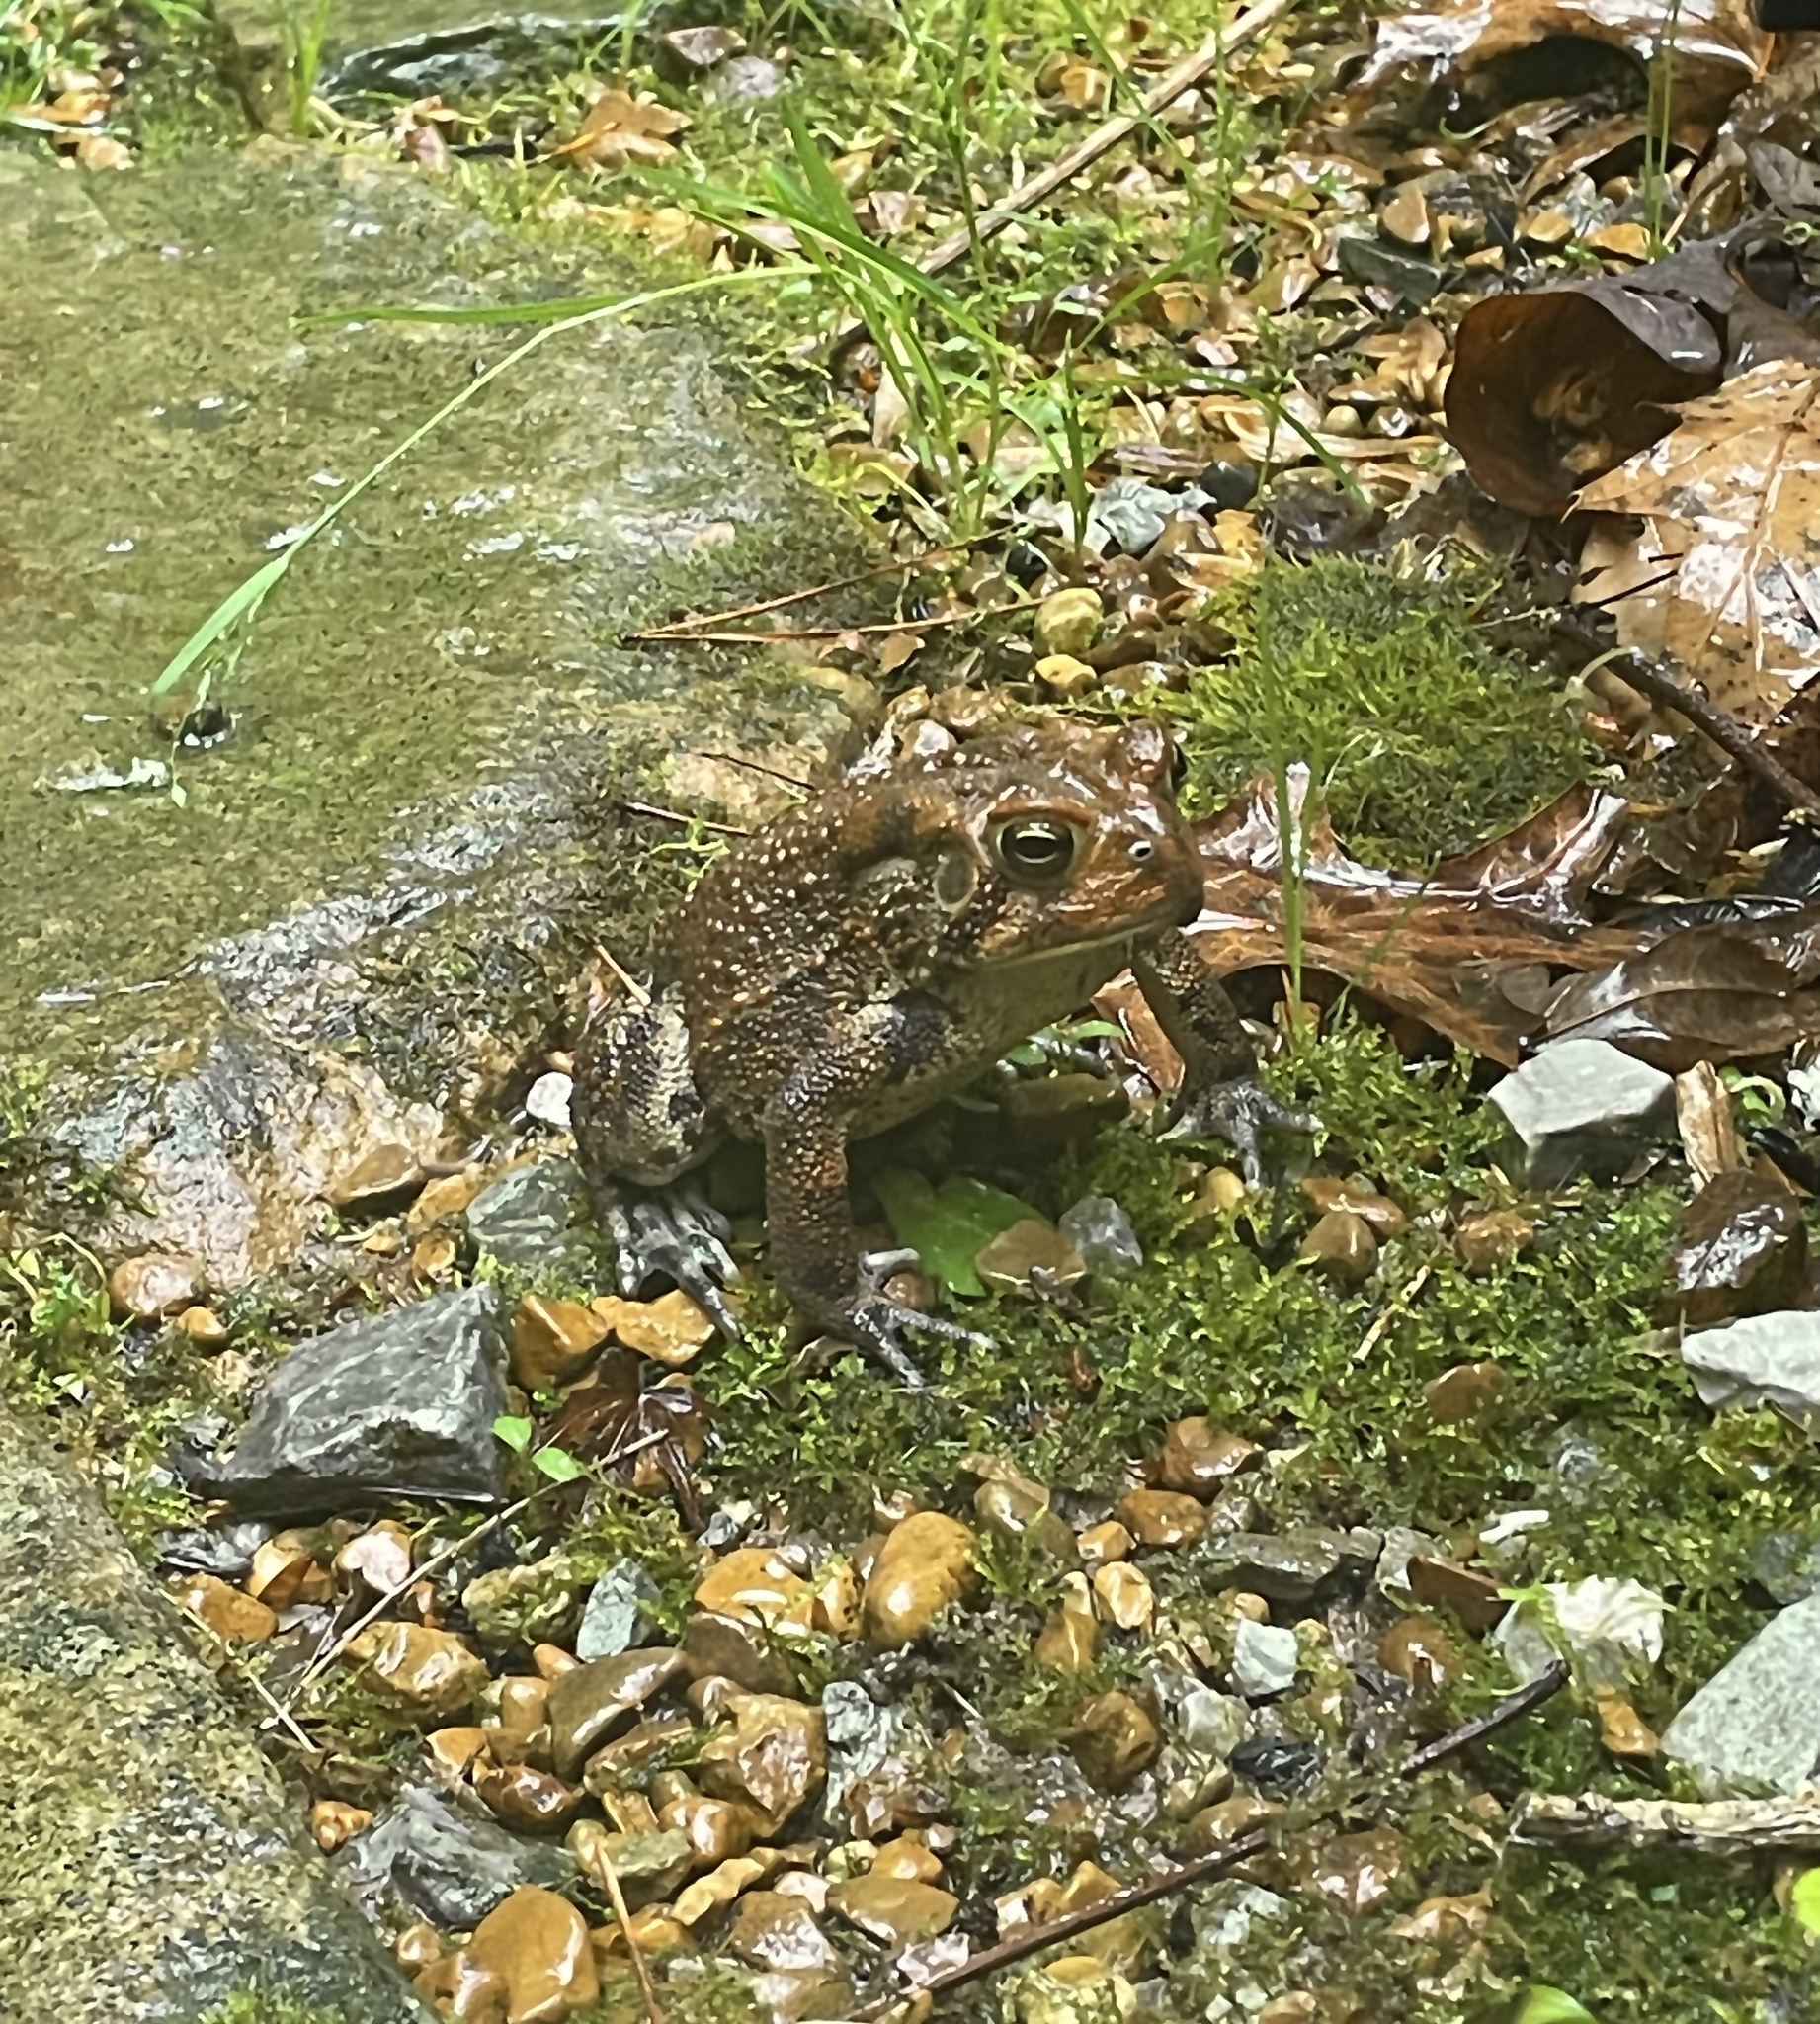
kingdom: Animalia
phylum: Chordata
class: Amphibia
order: Anura
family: Bufonidae
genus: Anaxyrus
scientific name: Anaxyrus americanus
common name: American toad
